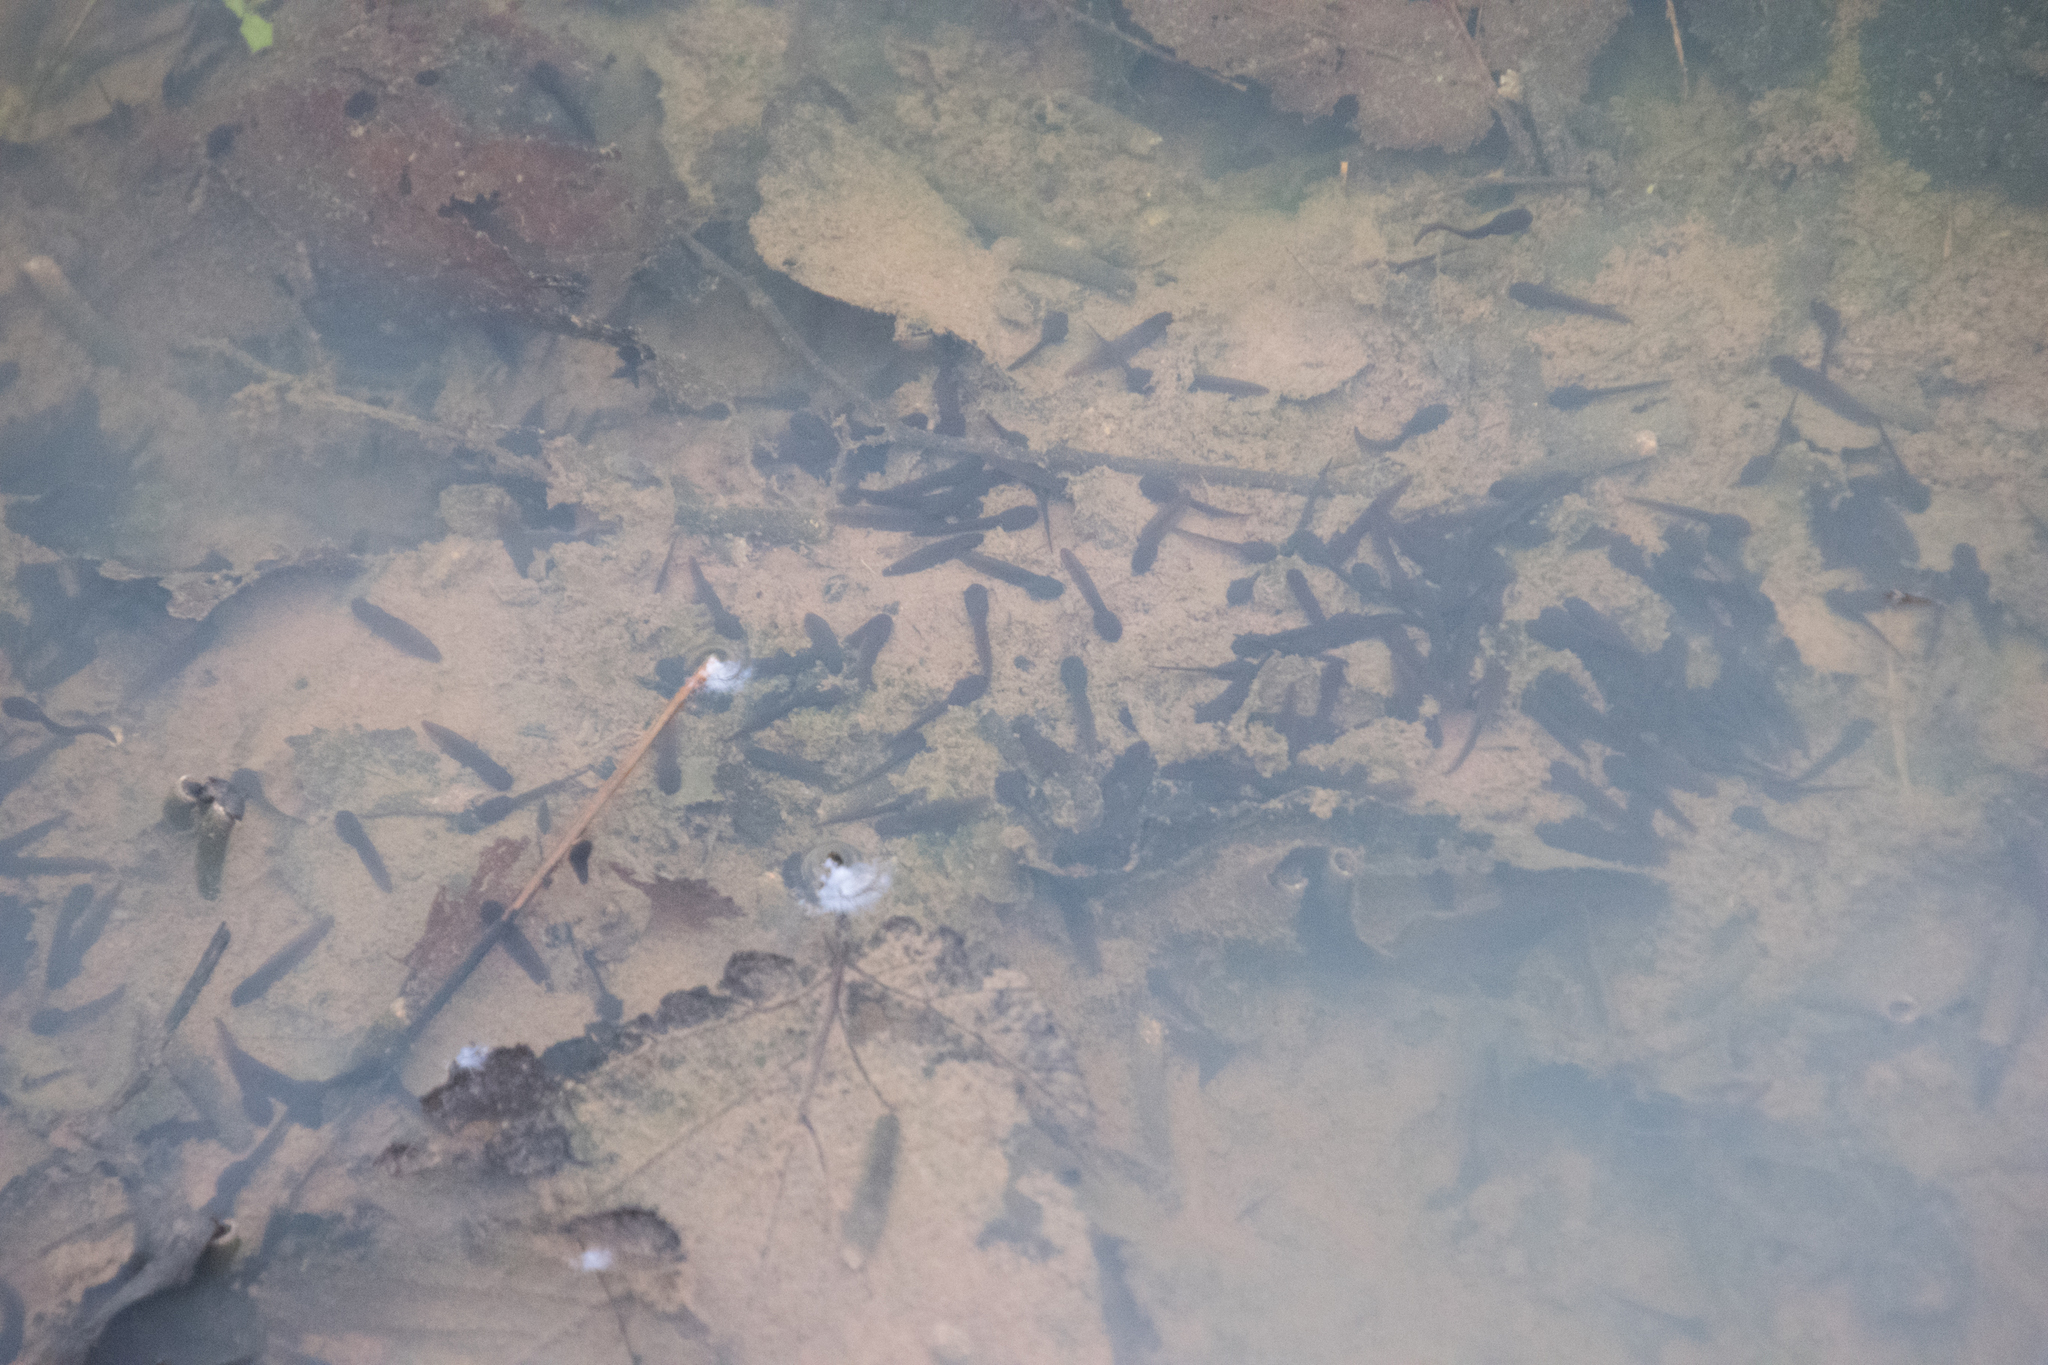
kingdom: Animalia
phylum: Chordata
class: Amphibia
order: Anura
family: Ranidae
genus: Rana
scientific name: Rana temporaria
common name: Common frog
